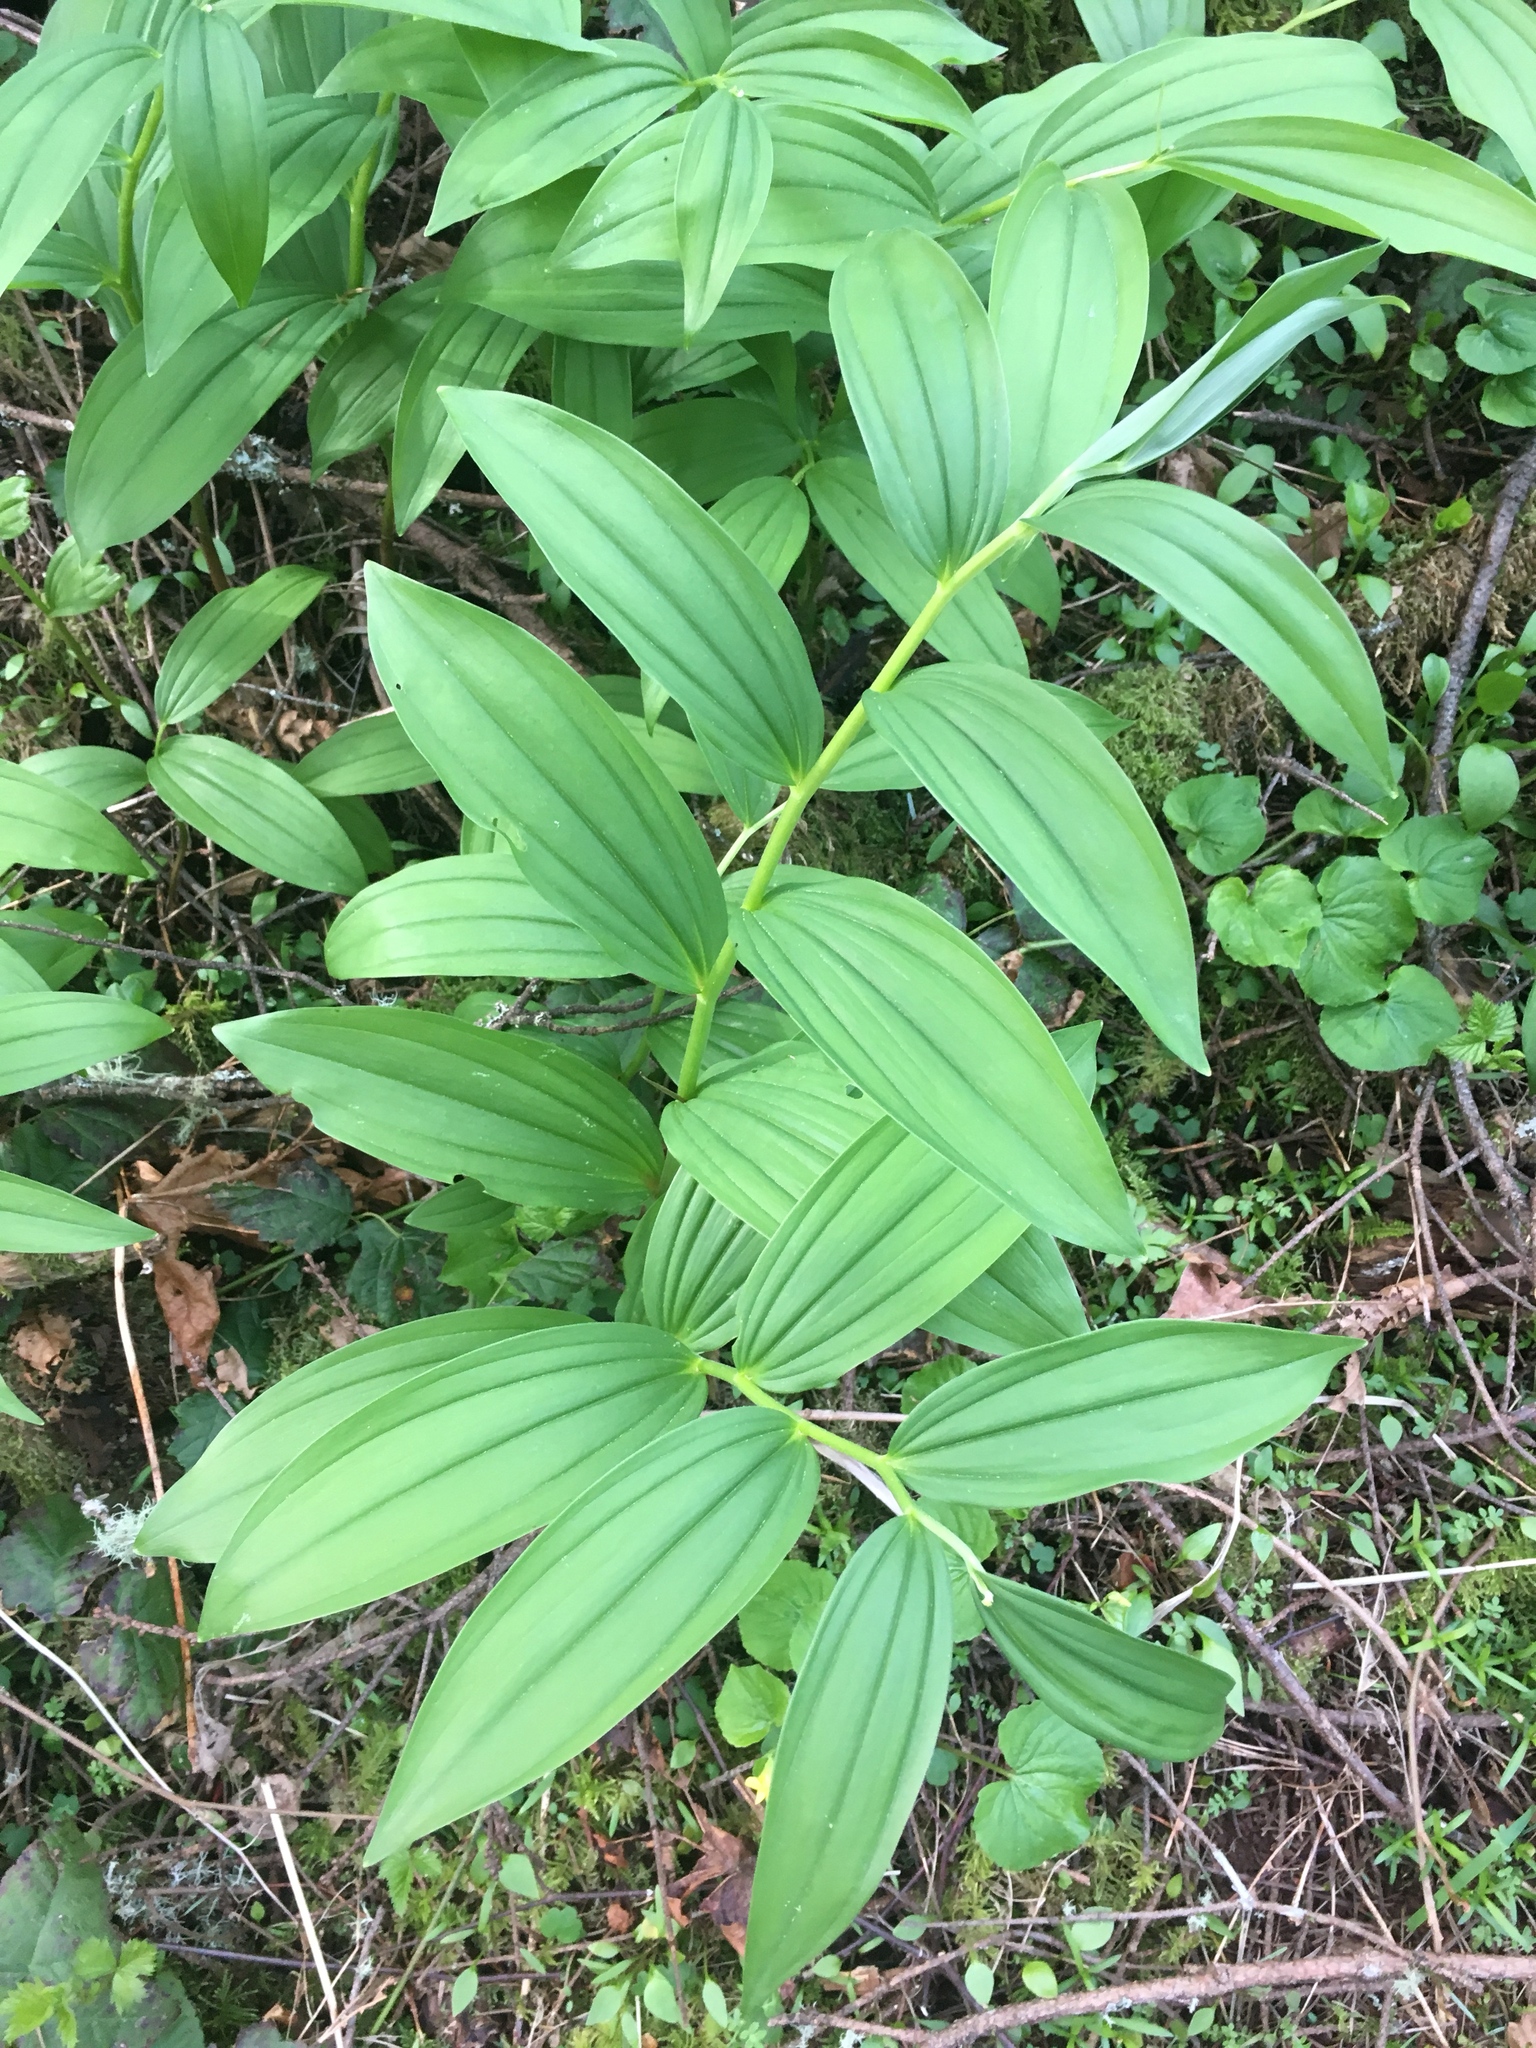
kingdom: Plantae
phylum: Tracheophyta
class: Liliopsida
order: Asparagales
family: Asparagaceae
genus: Maianthemum
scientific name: Maianthemum racemosum
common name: False spikenard
